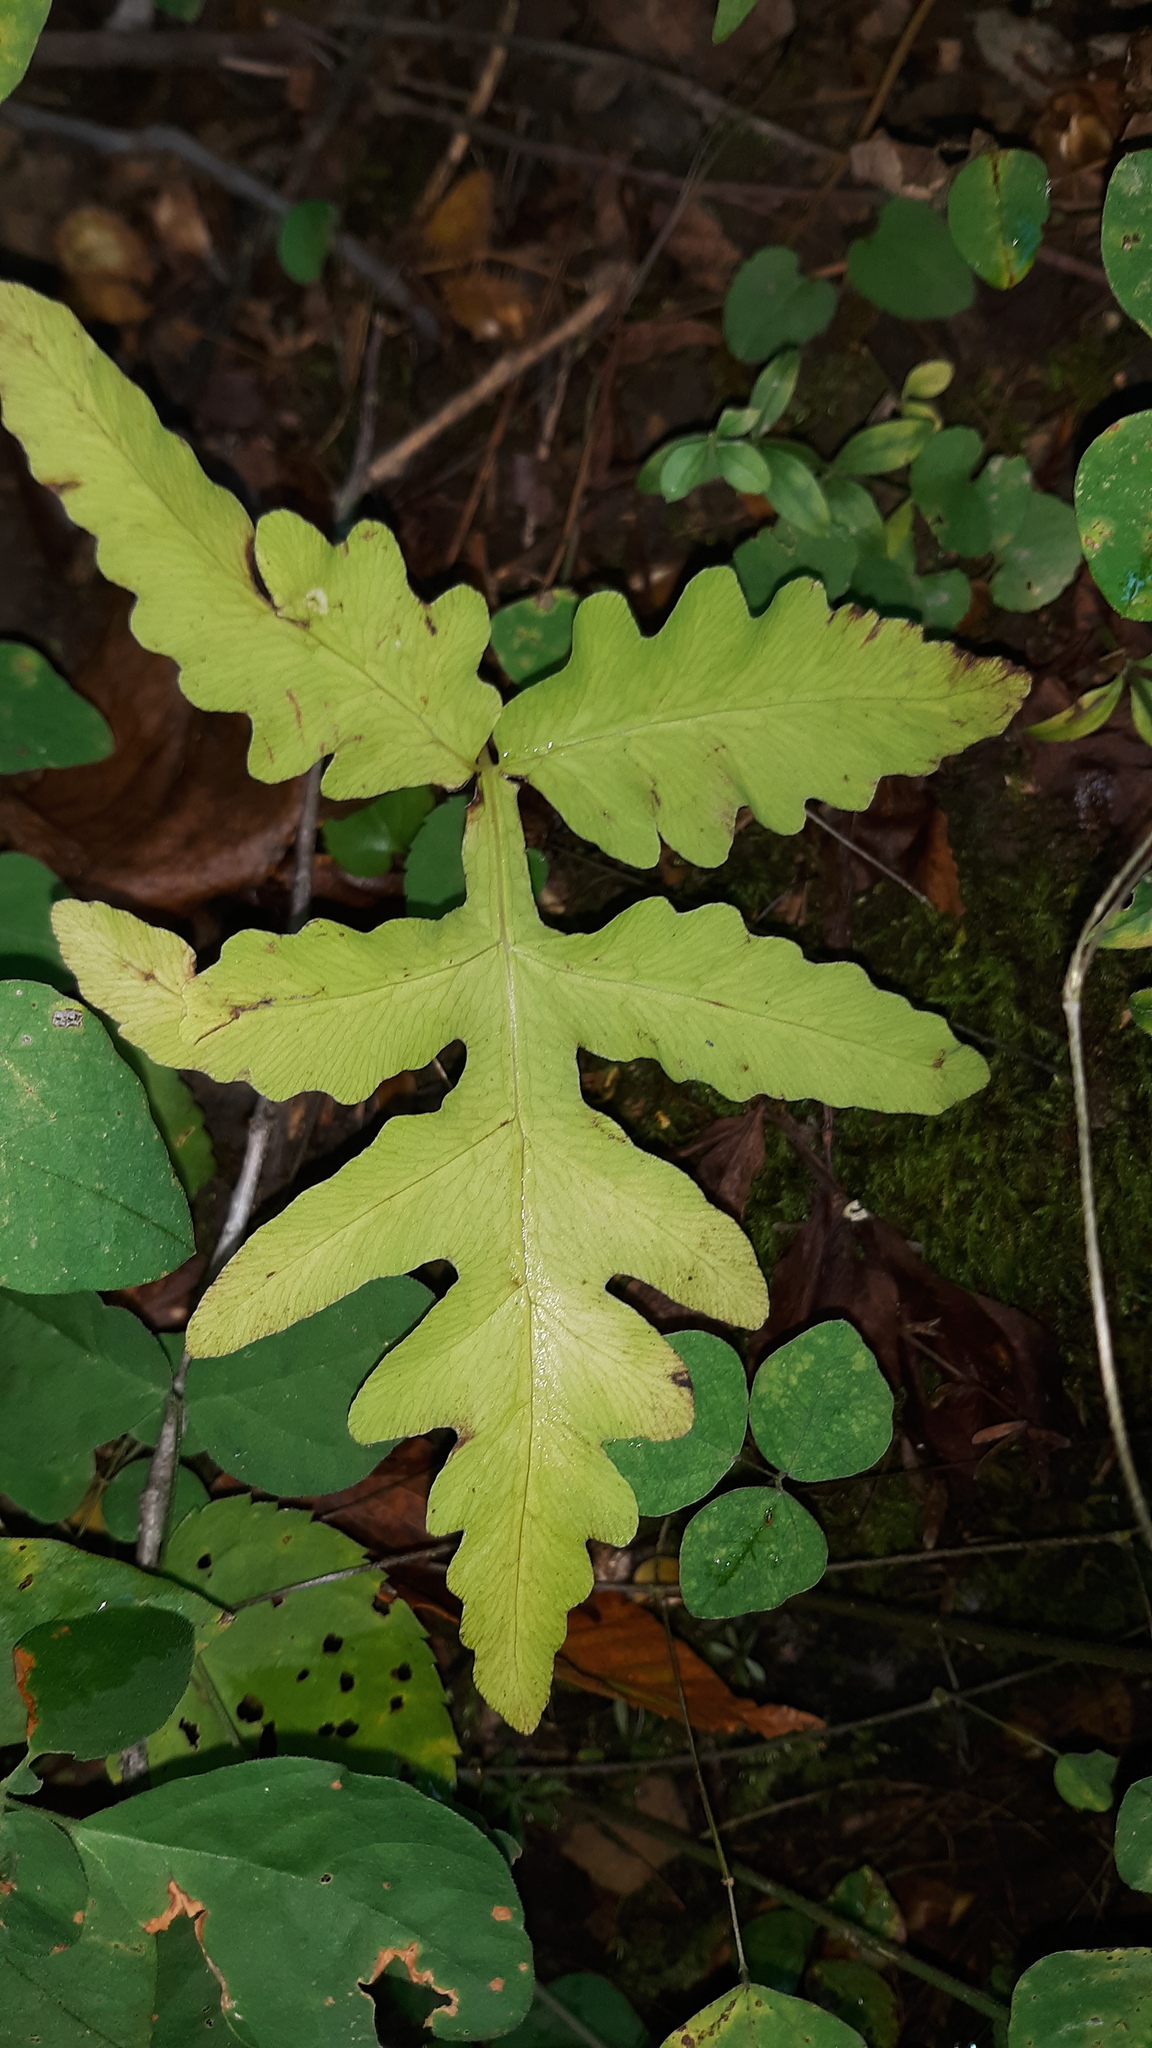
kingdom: Plantae
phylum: Tracheophyta
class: Polypodiopsida
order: Polypodiales
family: Onocleaceae
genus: Onoclea
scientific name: Onoclea sensibilis
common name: Sensitive fern
